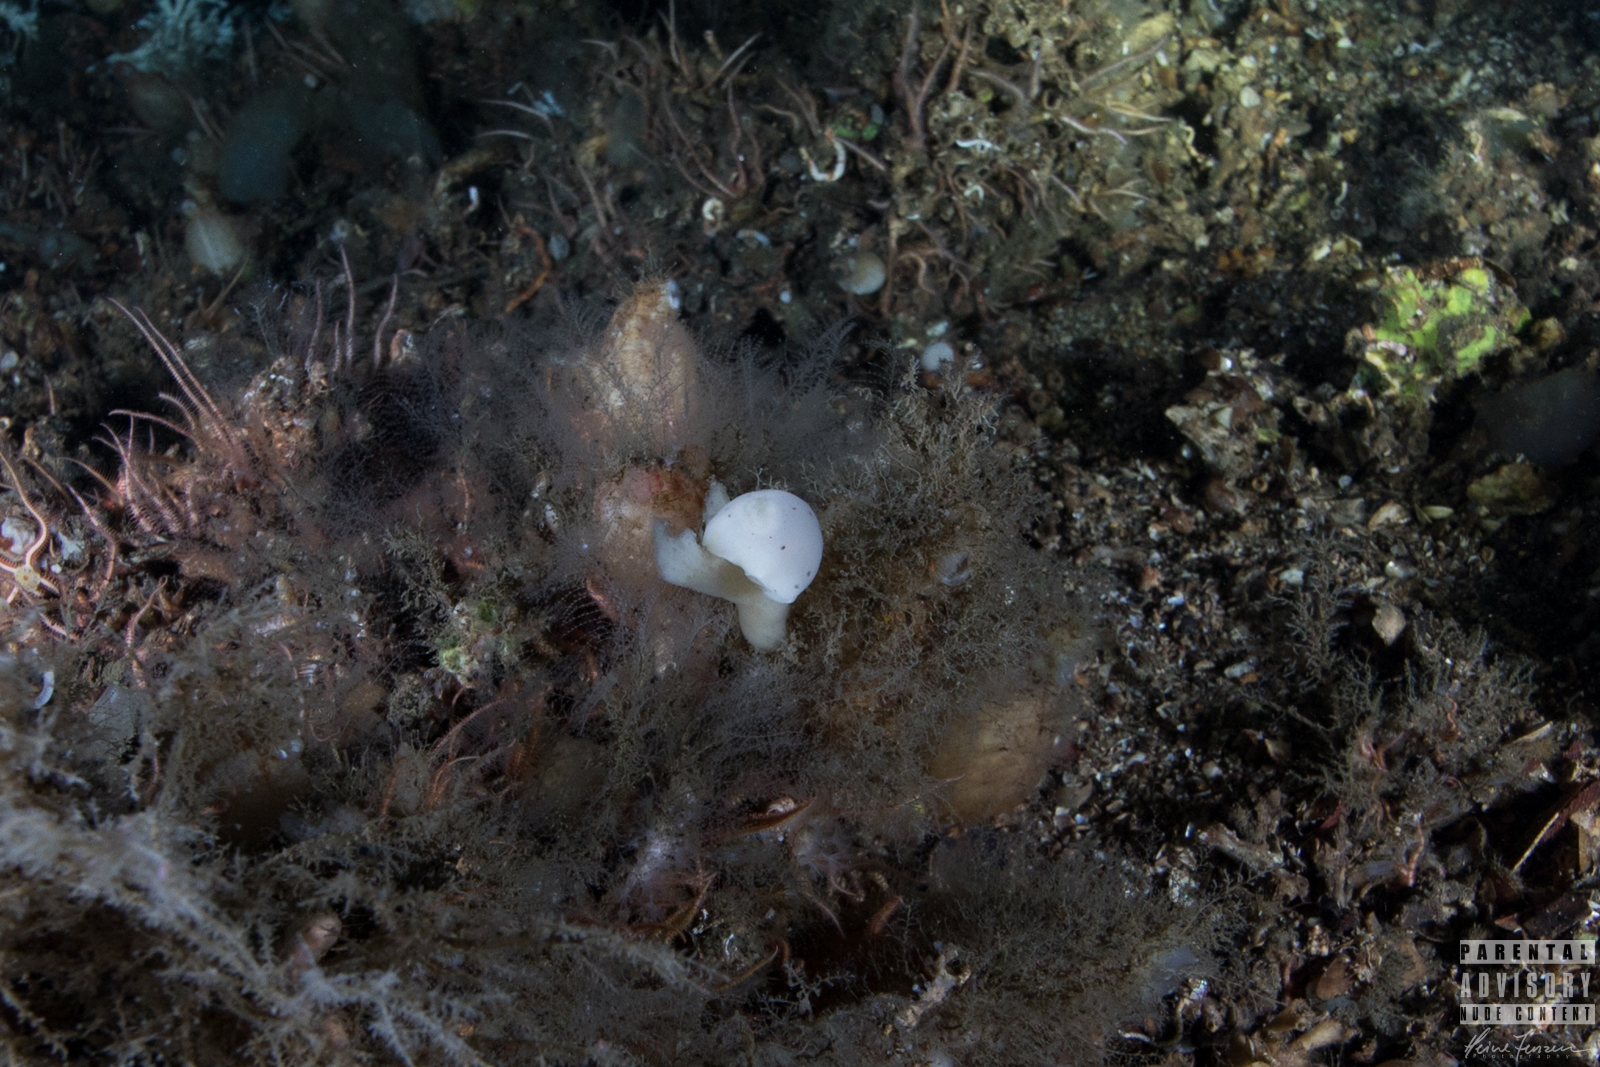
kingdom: Animalia
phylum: Mollusca
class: Gastropoda
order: Nudibranchia
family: Discodorididae
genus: Jorunna
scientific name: Jorunna tomentosa
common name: Grey sea slug
